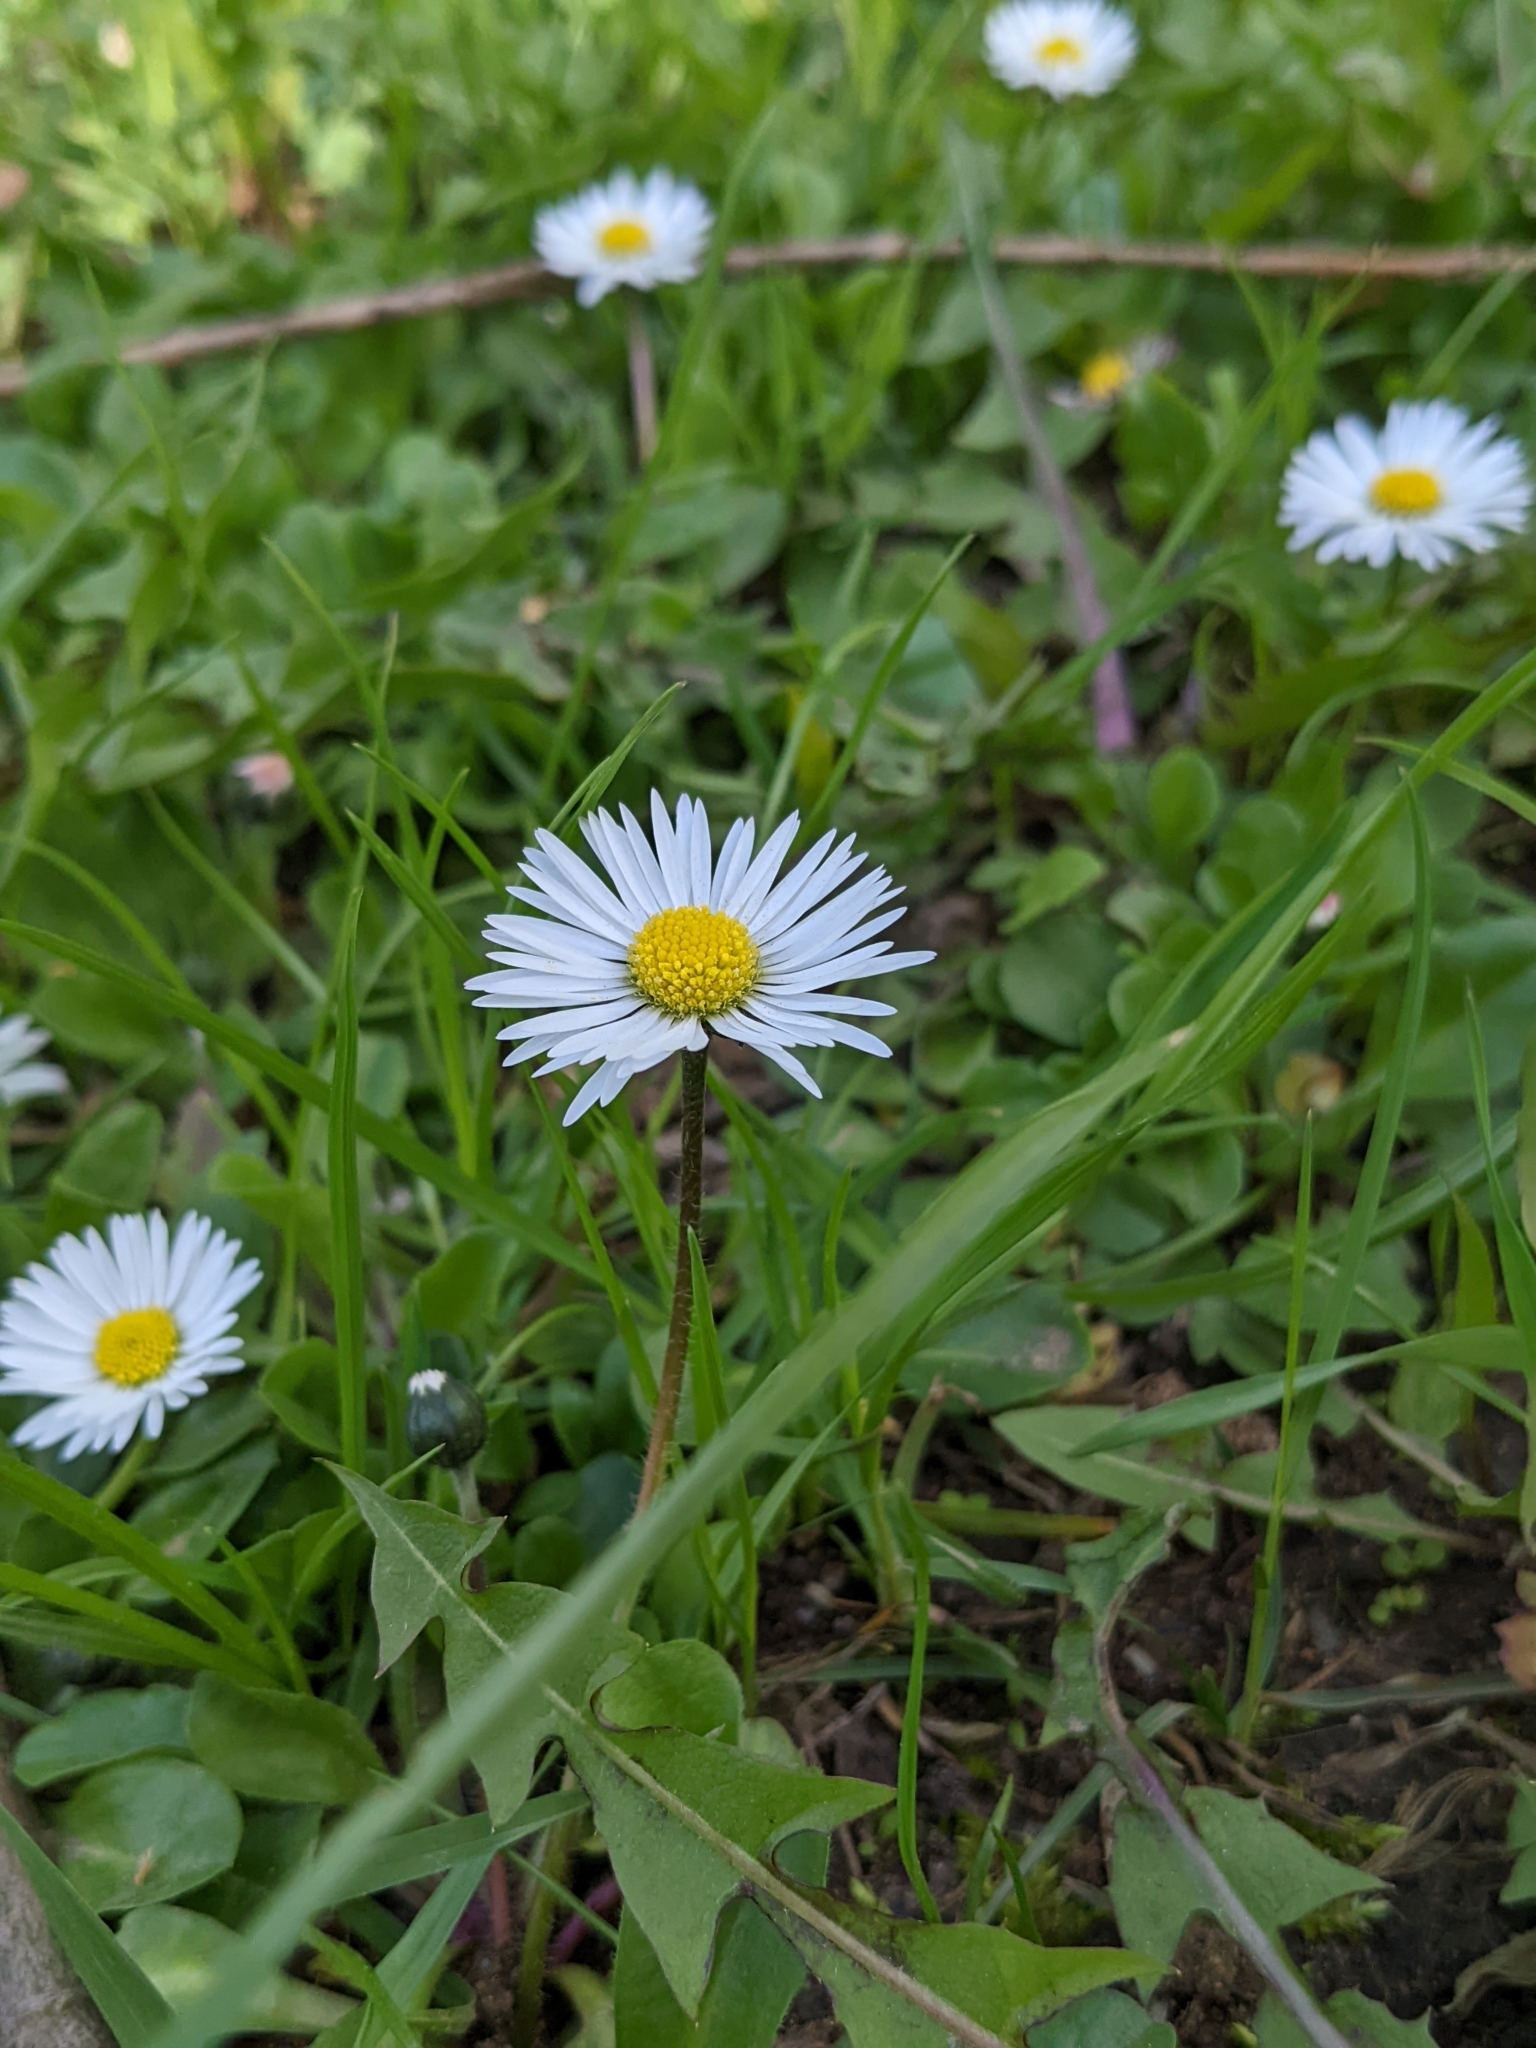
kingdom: Plantae
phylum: Tracheophyta
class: Magnoliopsida
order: Asterales
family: Asteraceae
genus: Bellis
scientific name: Bellis perennis
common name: Lawndaisy
